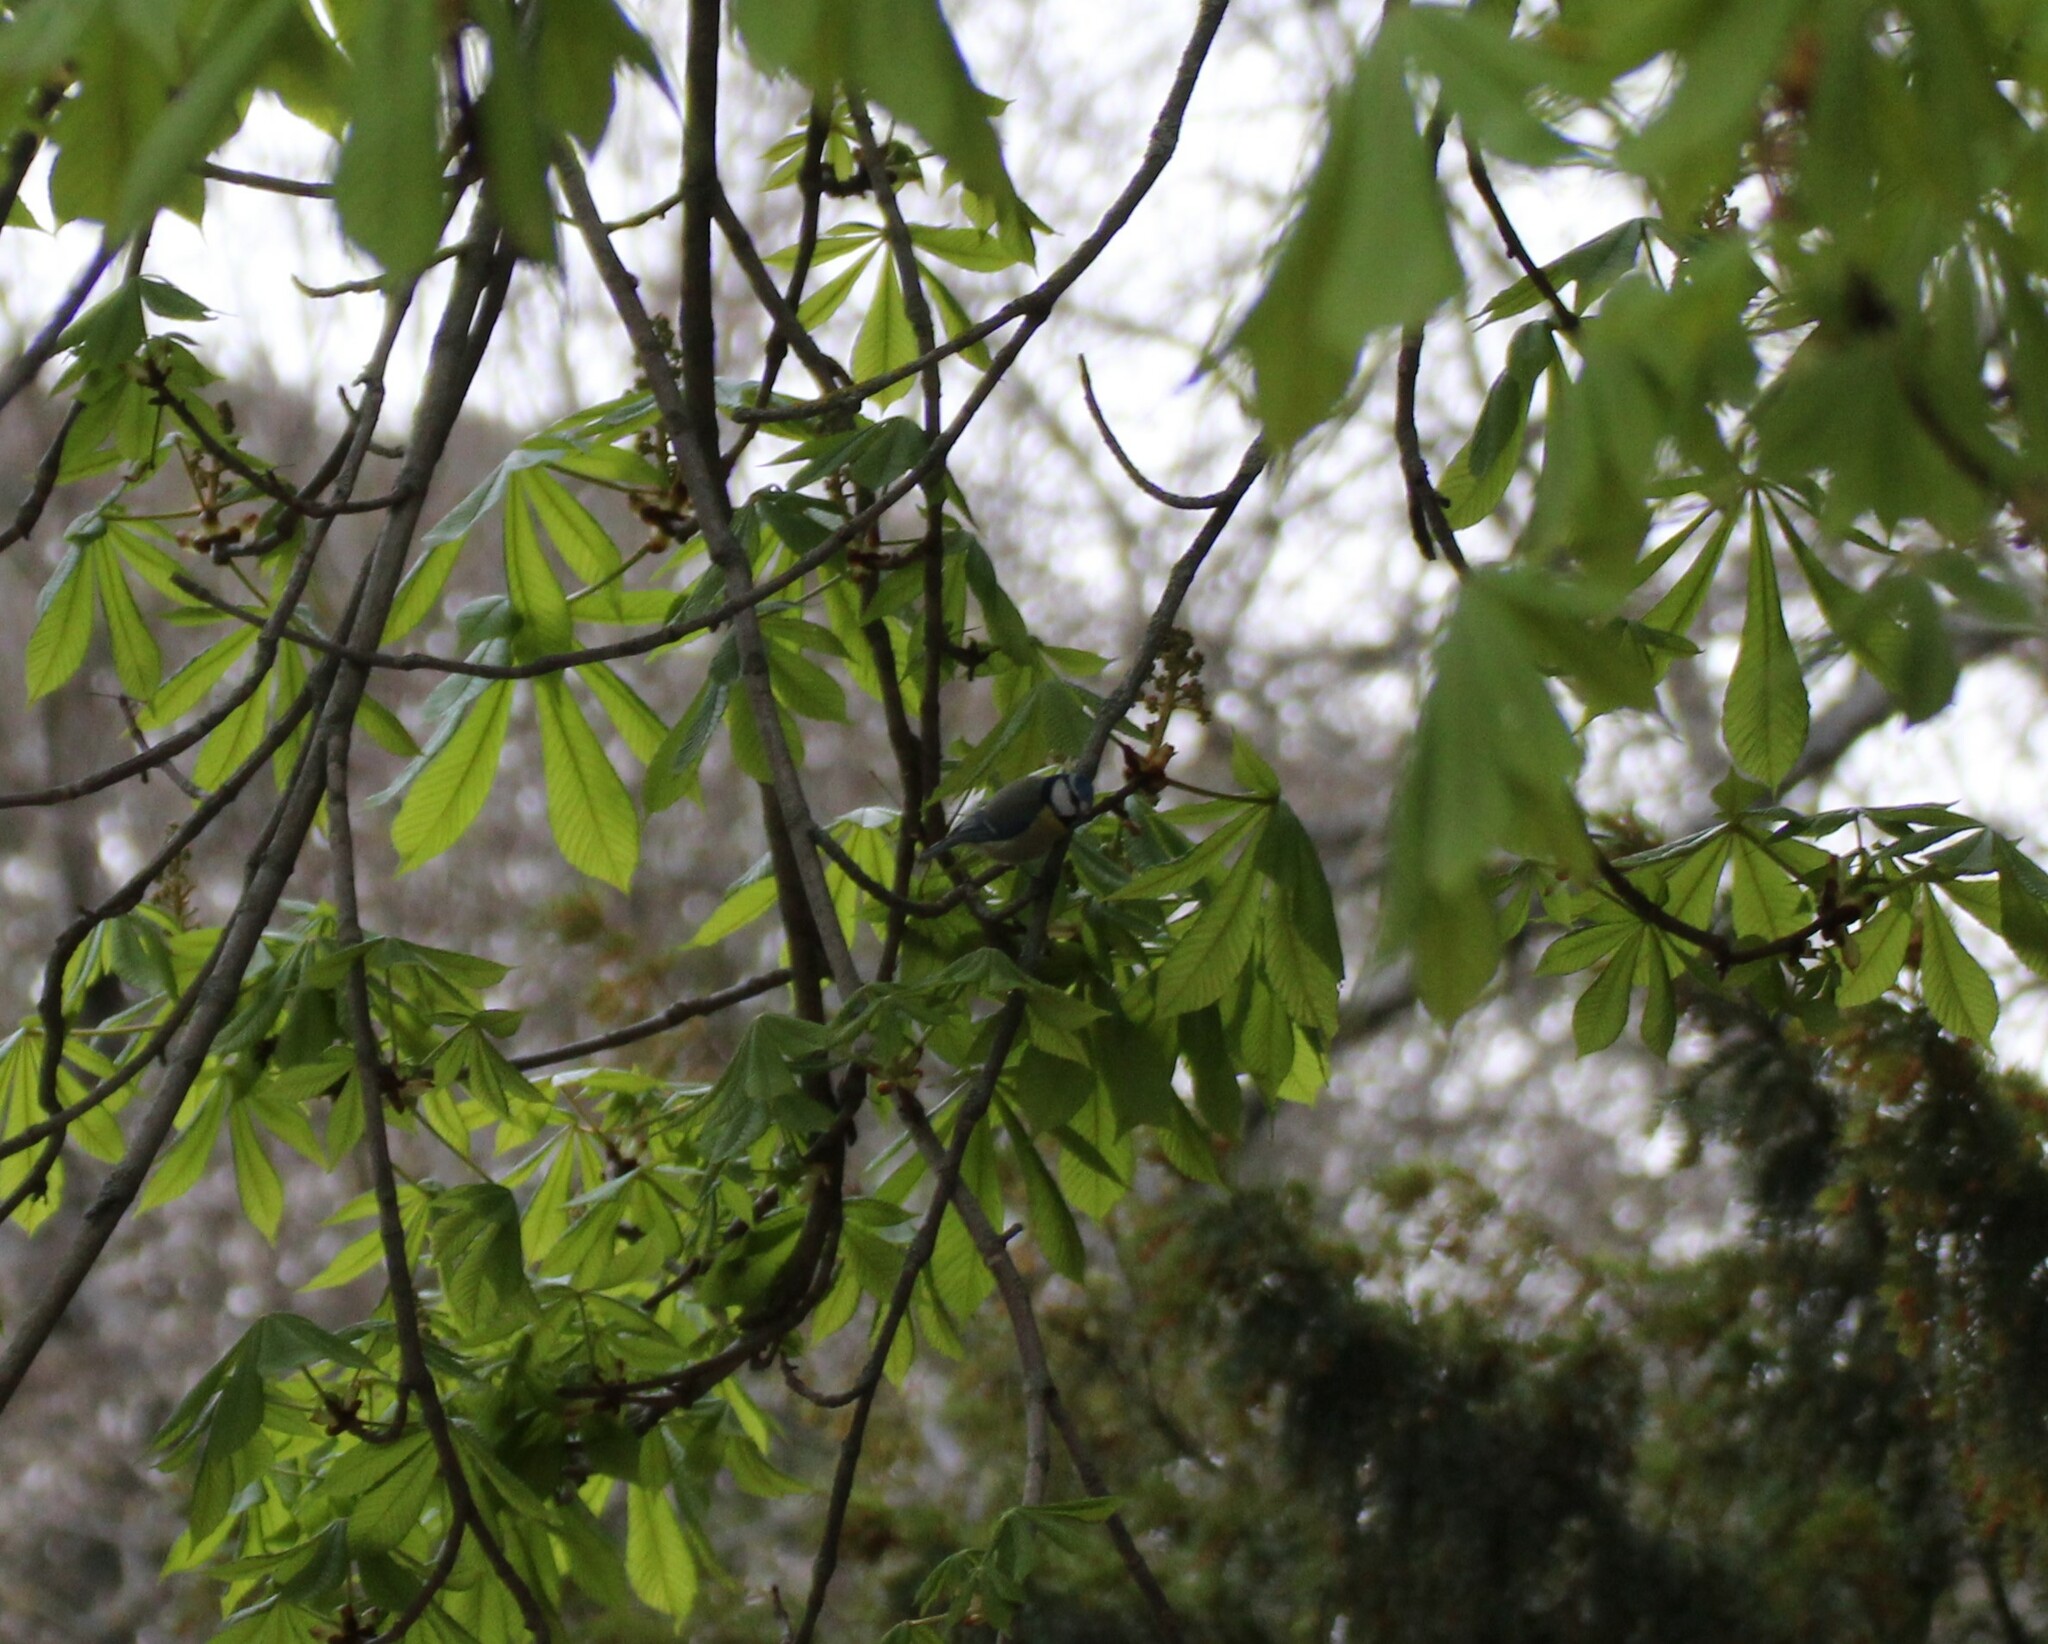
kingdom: Animalia
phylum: Chordata
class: Aves
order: Passeriformes
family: Paridae
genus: Cyanistes
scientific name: Cyanistes caeruleus
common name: Eurasian blue tit
